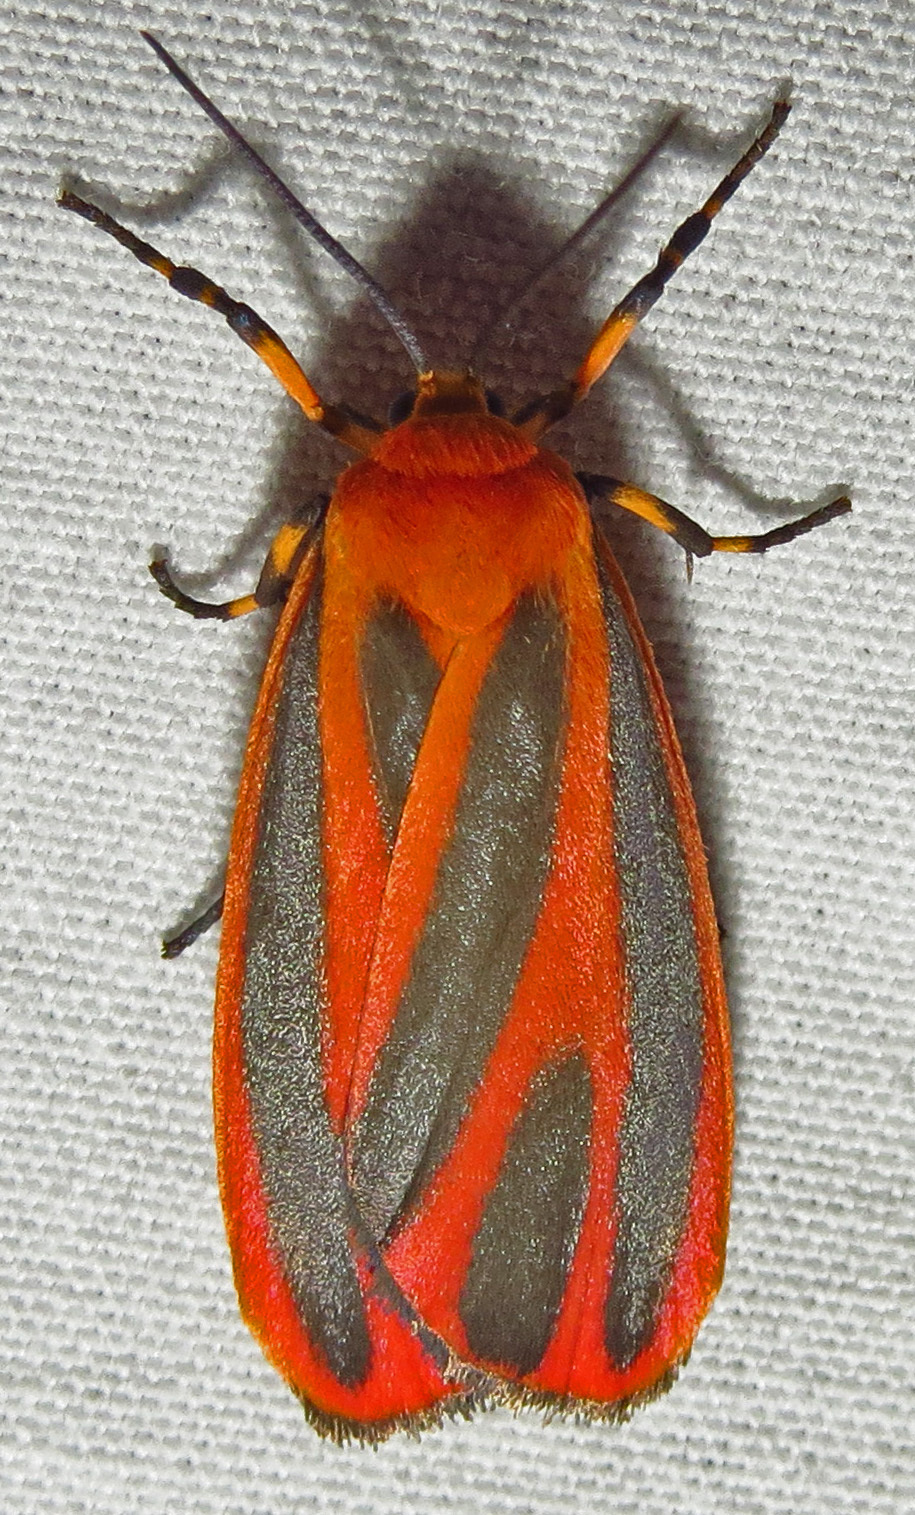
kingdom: Animalia
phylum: Arthropoda
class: Insecta
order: Lepidoptera
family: Erebidae
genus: Hypoprepia
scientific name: Hypoprepia miniata
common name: Scarlet-winged lichen moth
